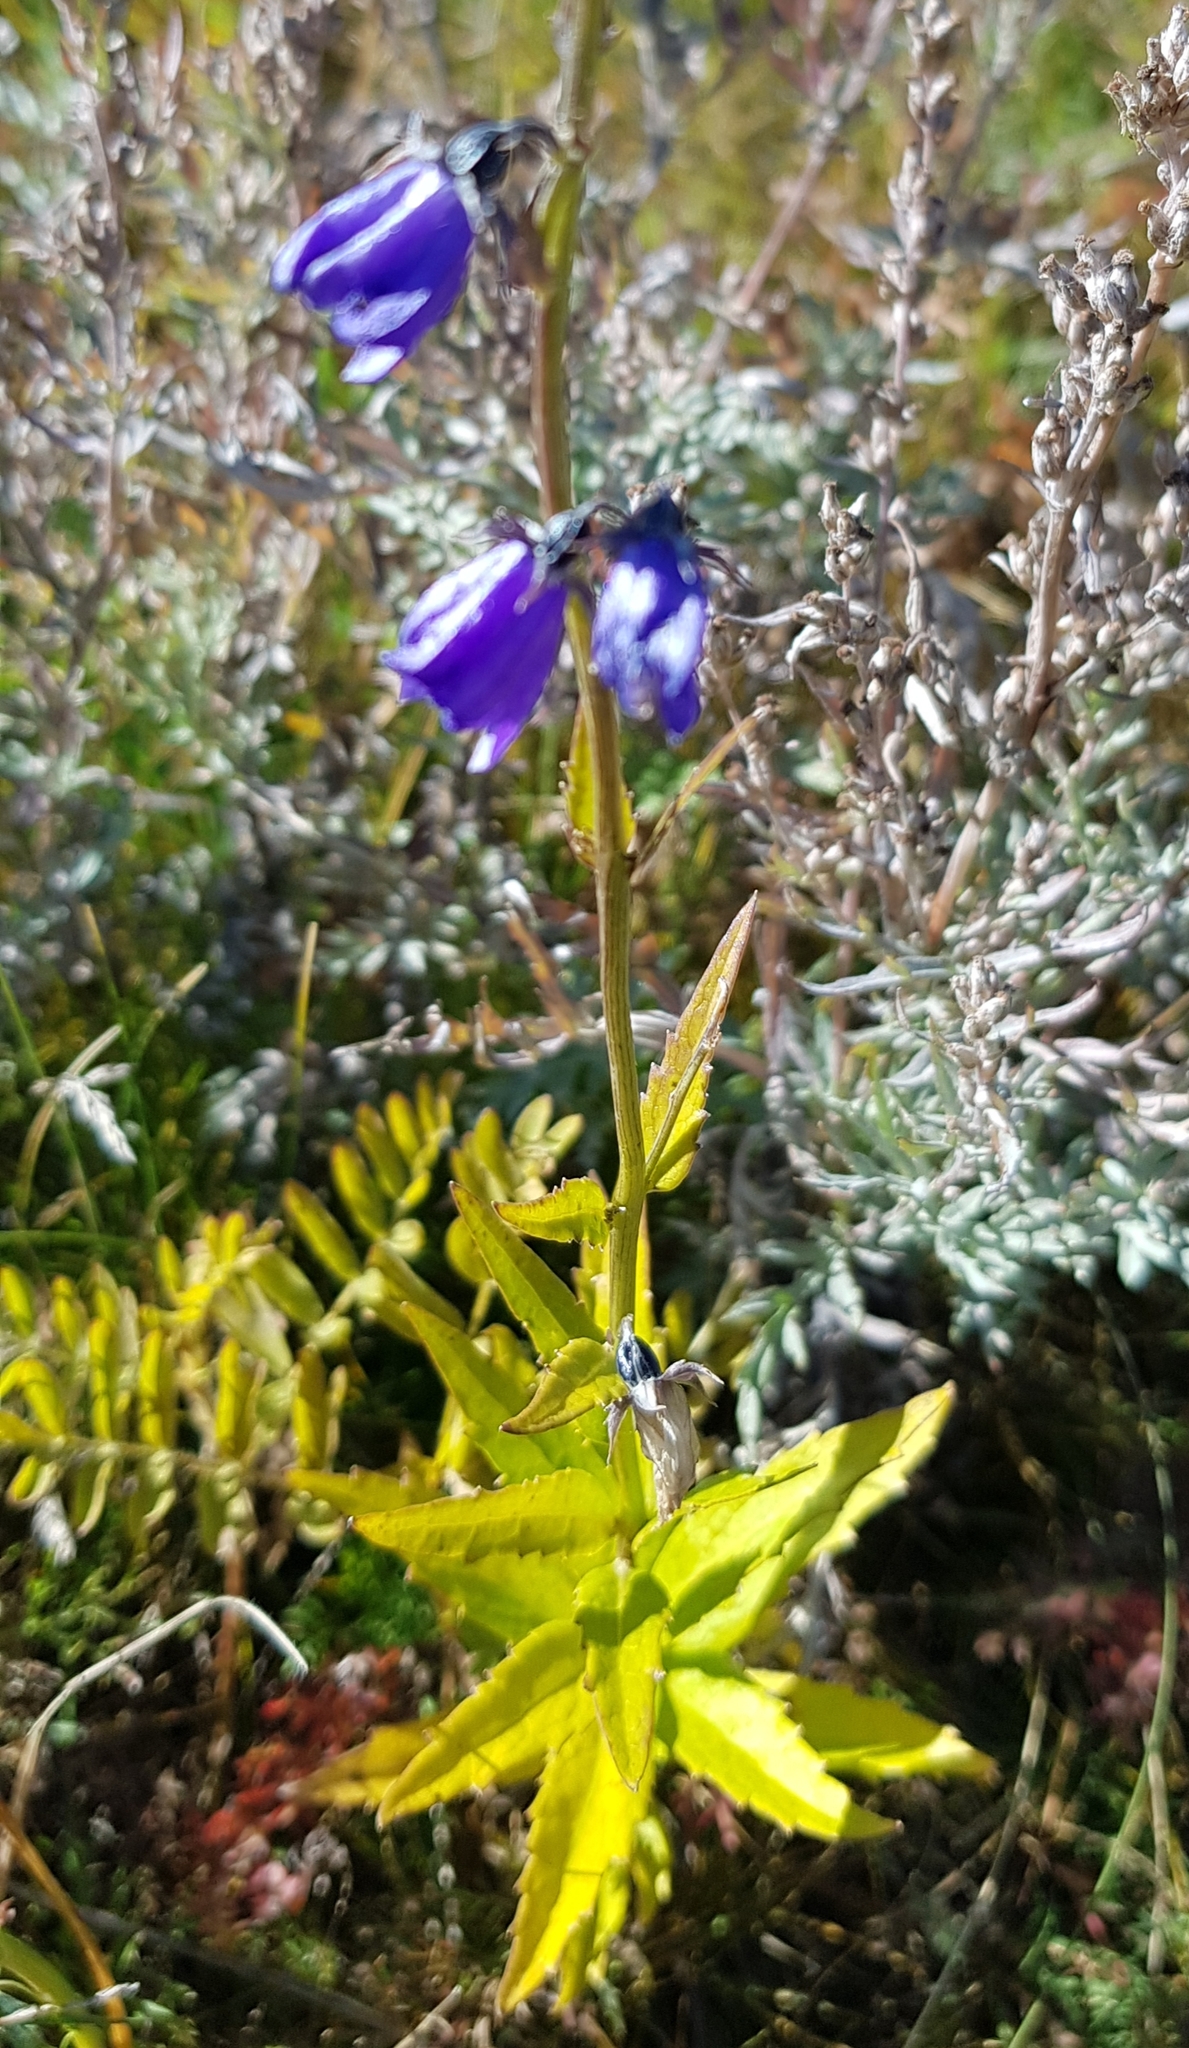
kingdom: Plantae
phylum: Tracheophyta
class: Magnoliopsida
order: Asterales
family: Campanulaceae
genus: Adenophora
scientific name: Adenophora tricuspidata
